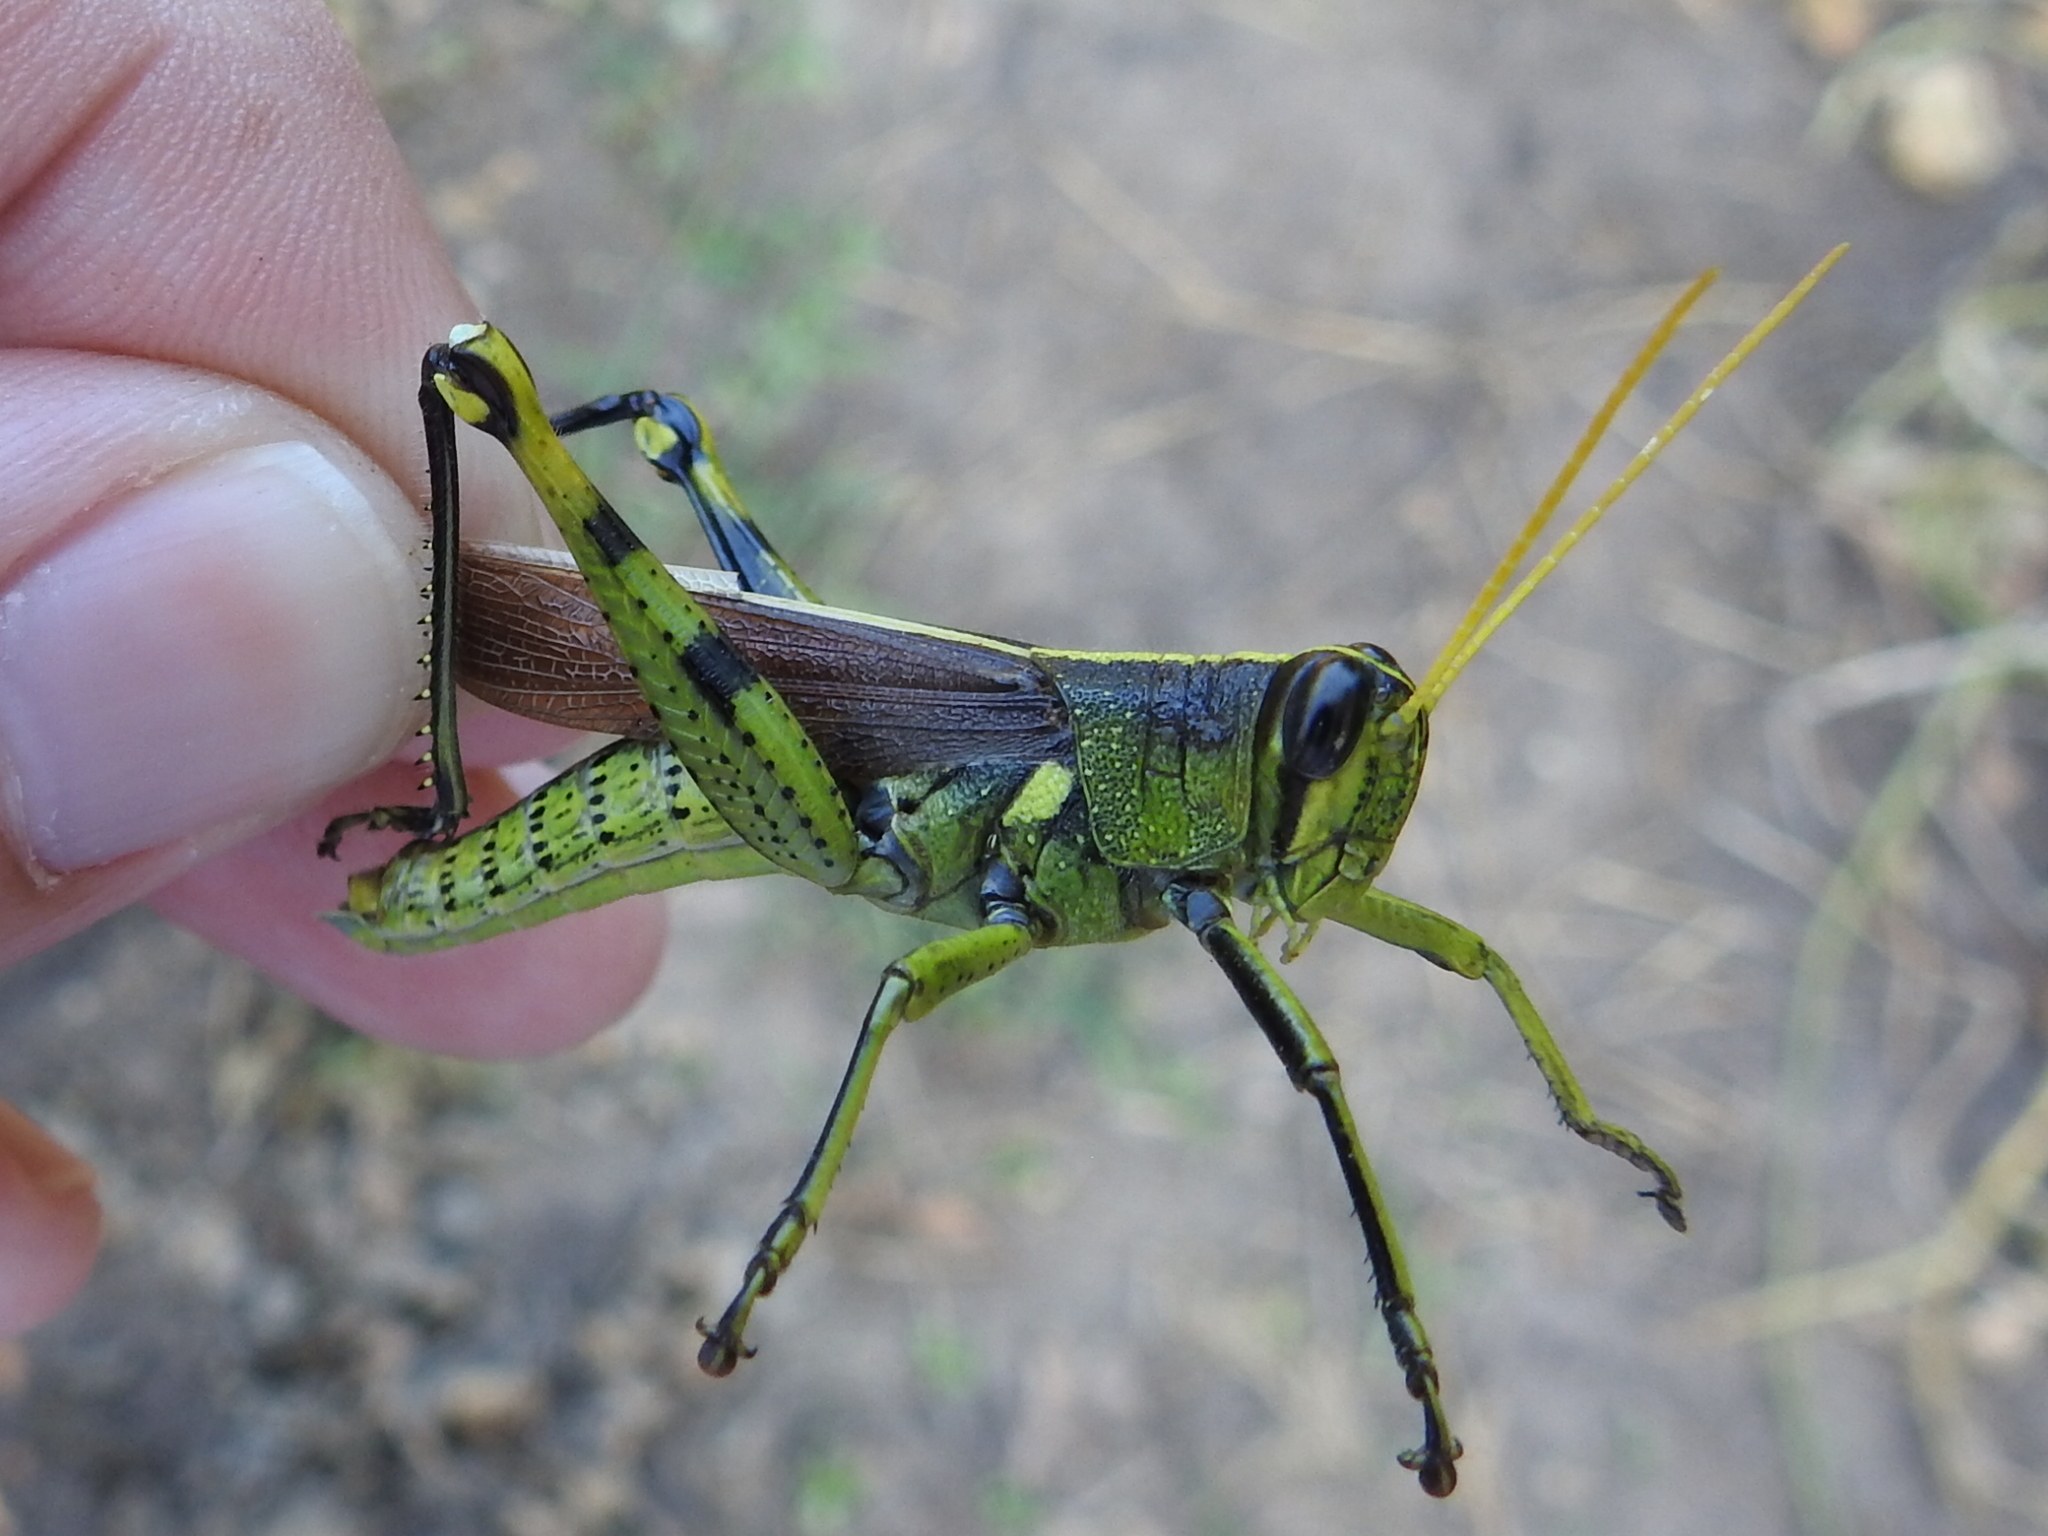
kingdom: Animalia
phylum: Arthropoda
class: Insecta
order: Orthoptera
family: Acrididae
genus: Schistocerca
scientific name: Schistocerca obscura
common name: Obscure bird grasshopper
